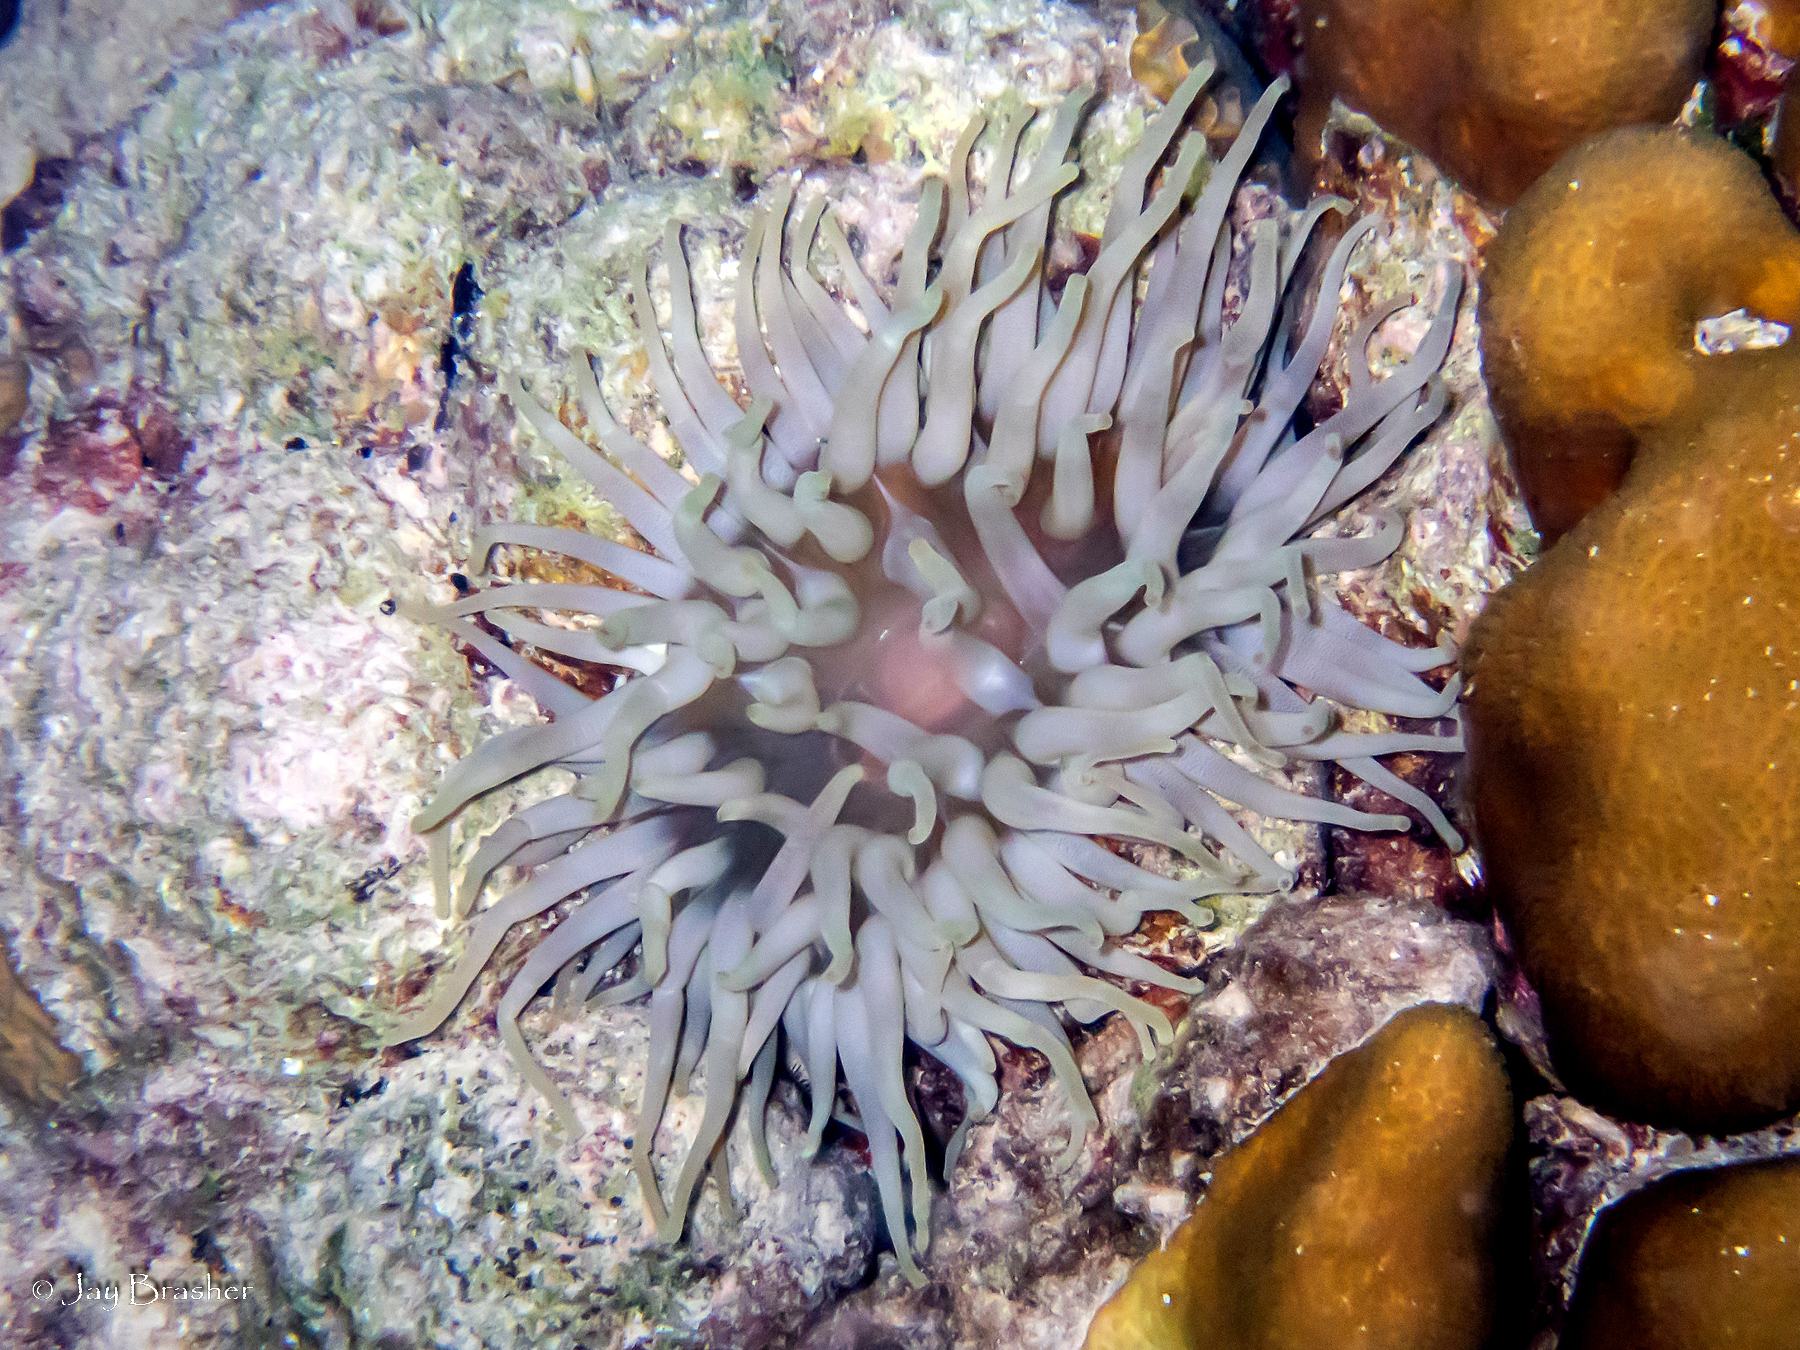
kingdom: Animalia
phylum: Cnidaria
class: Anthozoa
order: Actiniaria
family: Actiniidae
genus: Condylactis
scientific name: Condylactis gigantea
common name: Giant caribbean anemone
